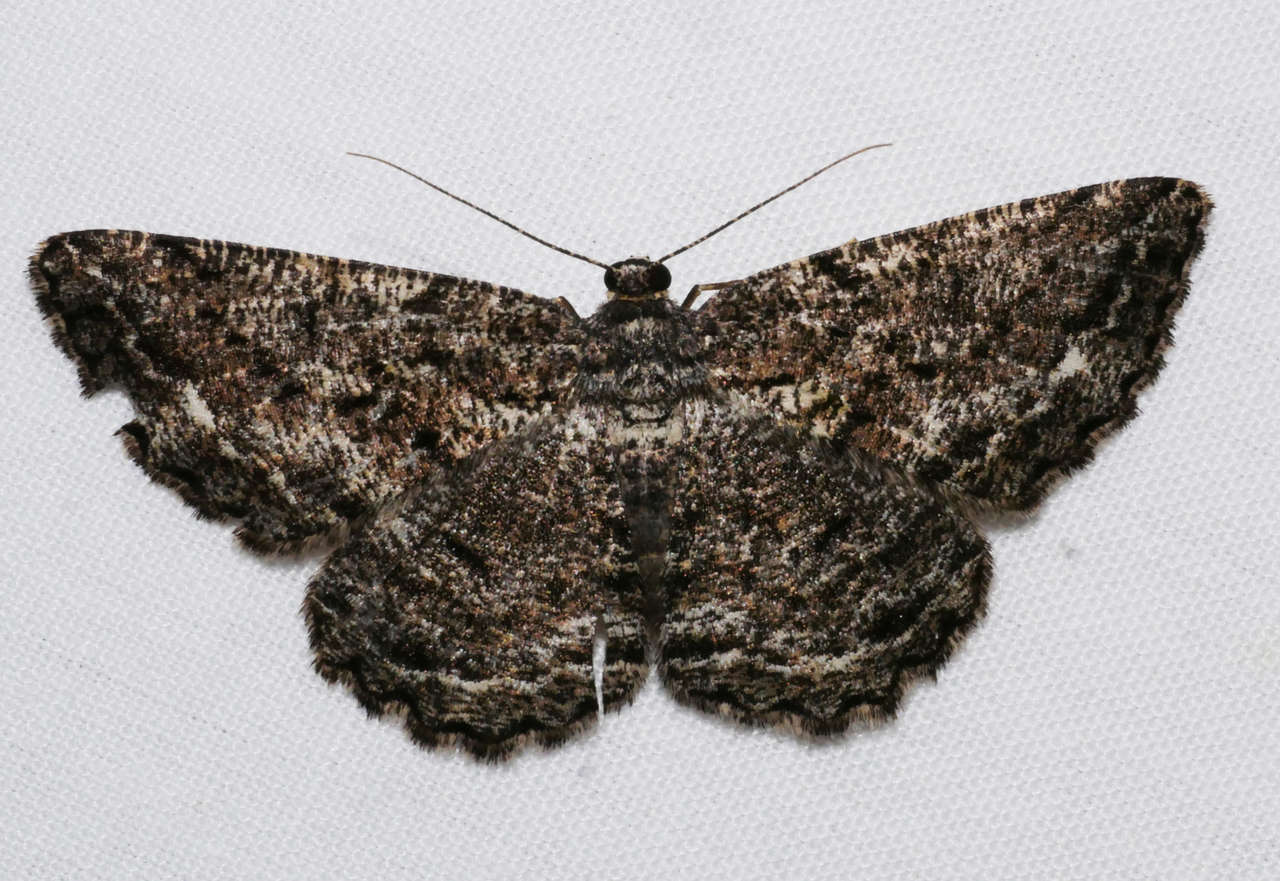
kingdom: Animalia
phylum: Arthropoda
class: Insecta
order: Lepidoptera
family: Geometridae
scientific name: Geometridae
